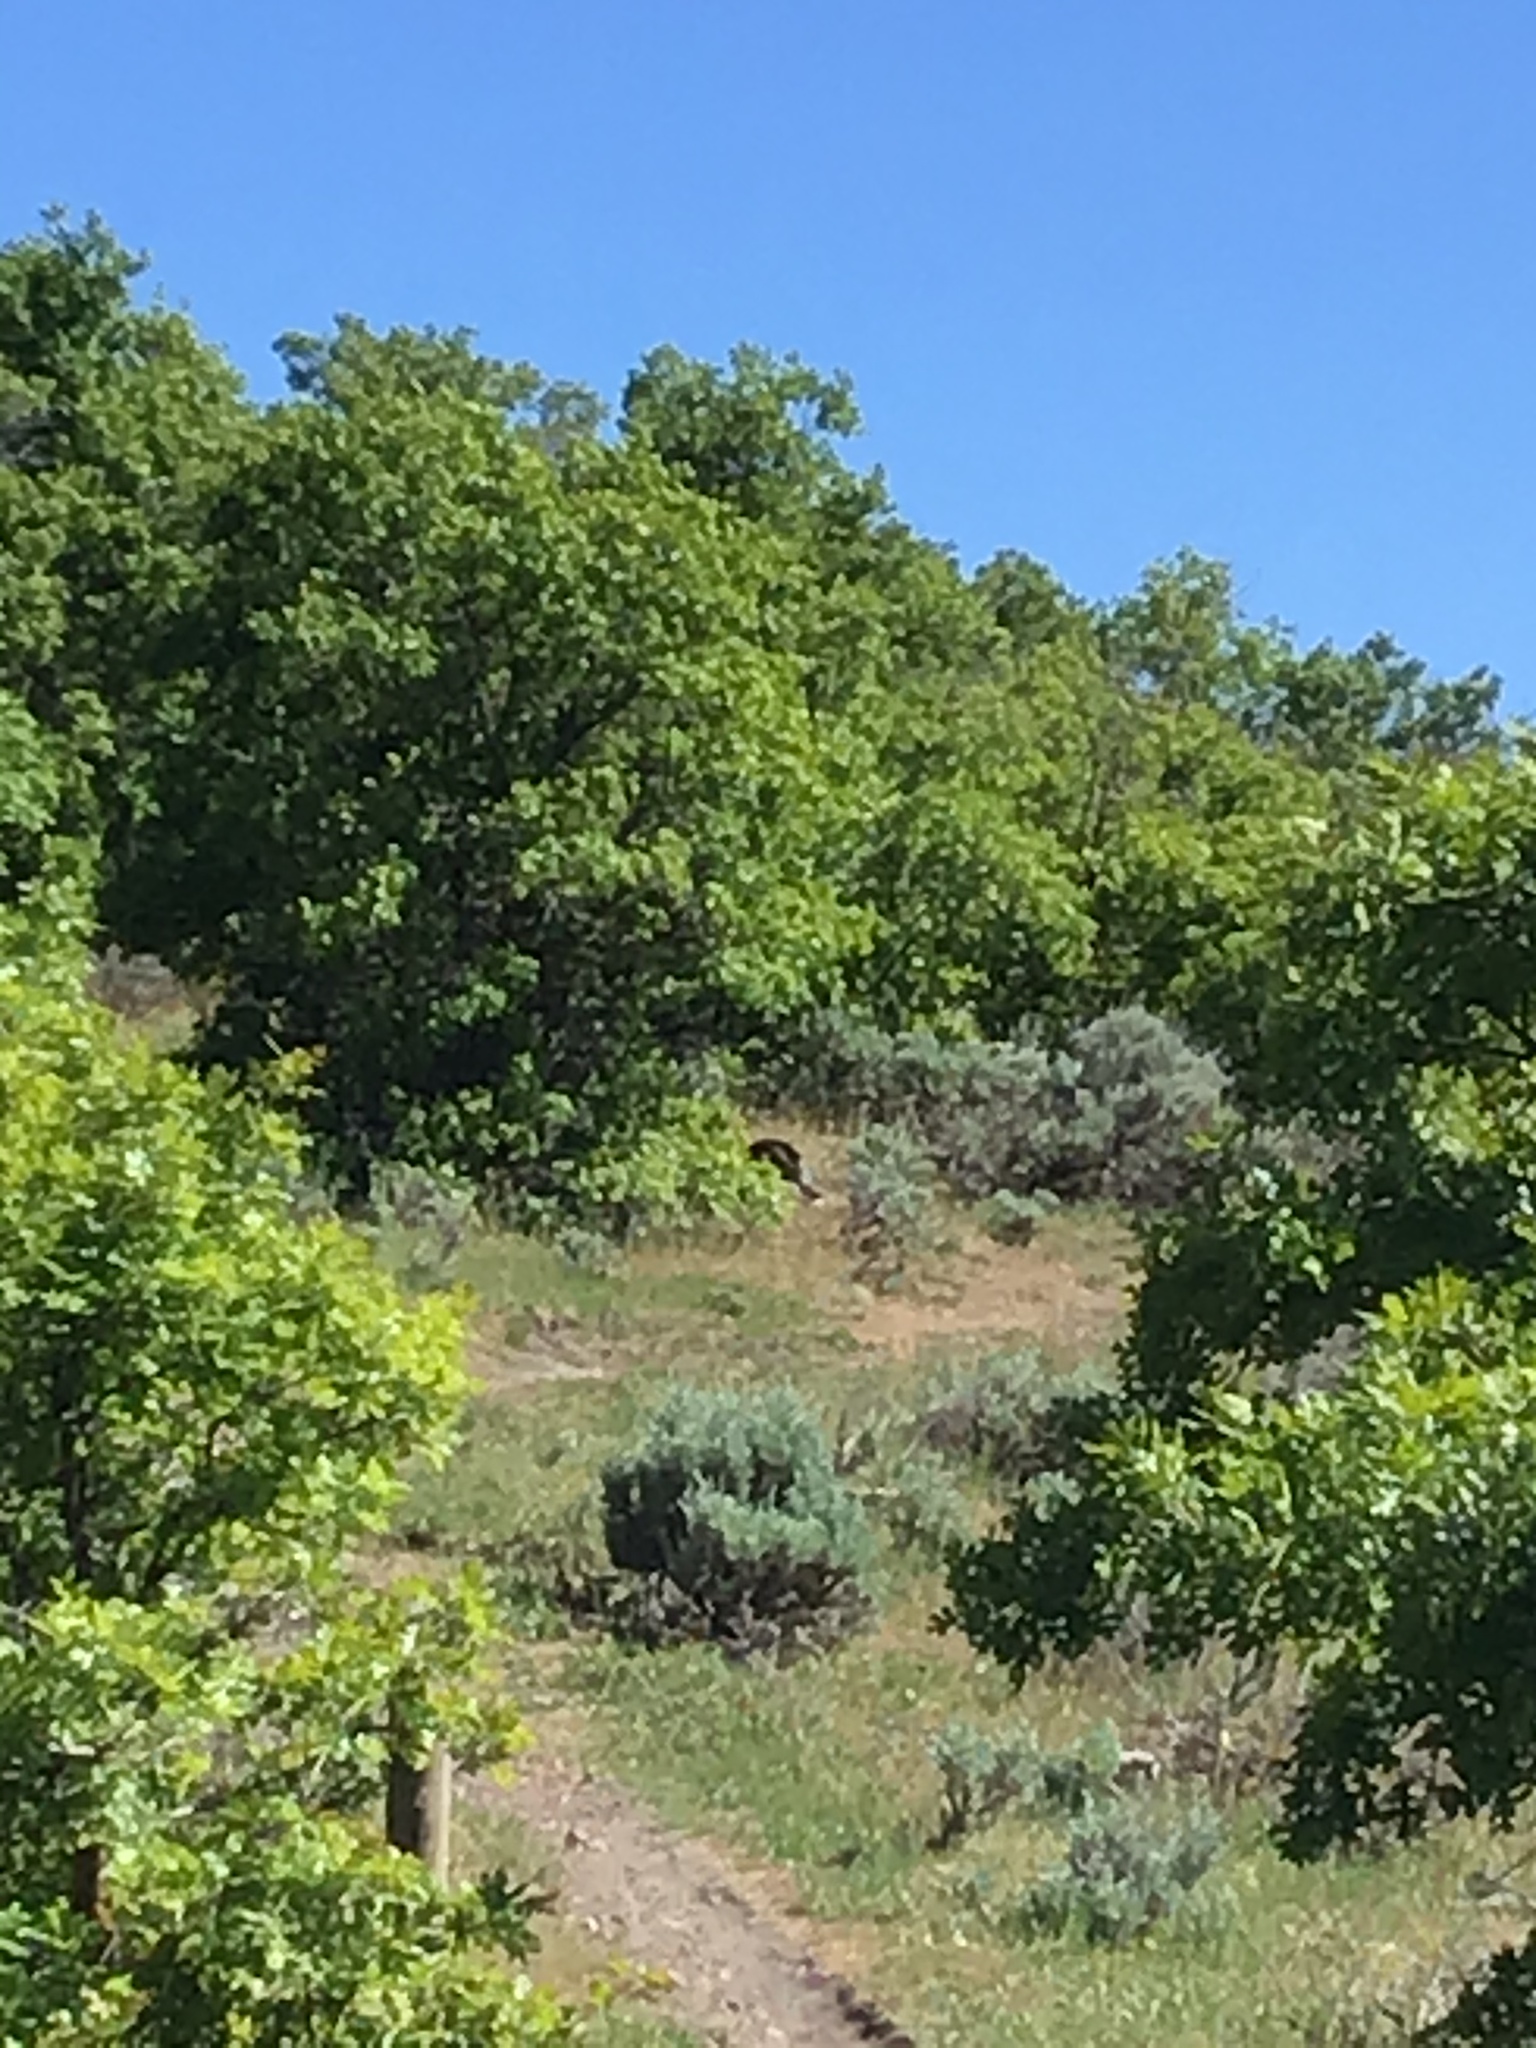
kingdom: Animalia
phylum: Chordata
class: Aves
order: Galliformes
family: Phasianidae
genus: Meleagris
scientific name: Meleagris gallopavo
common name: Wild turkey
